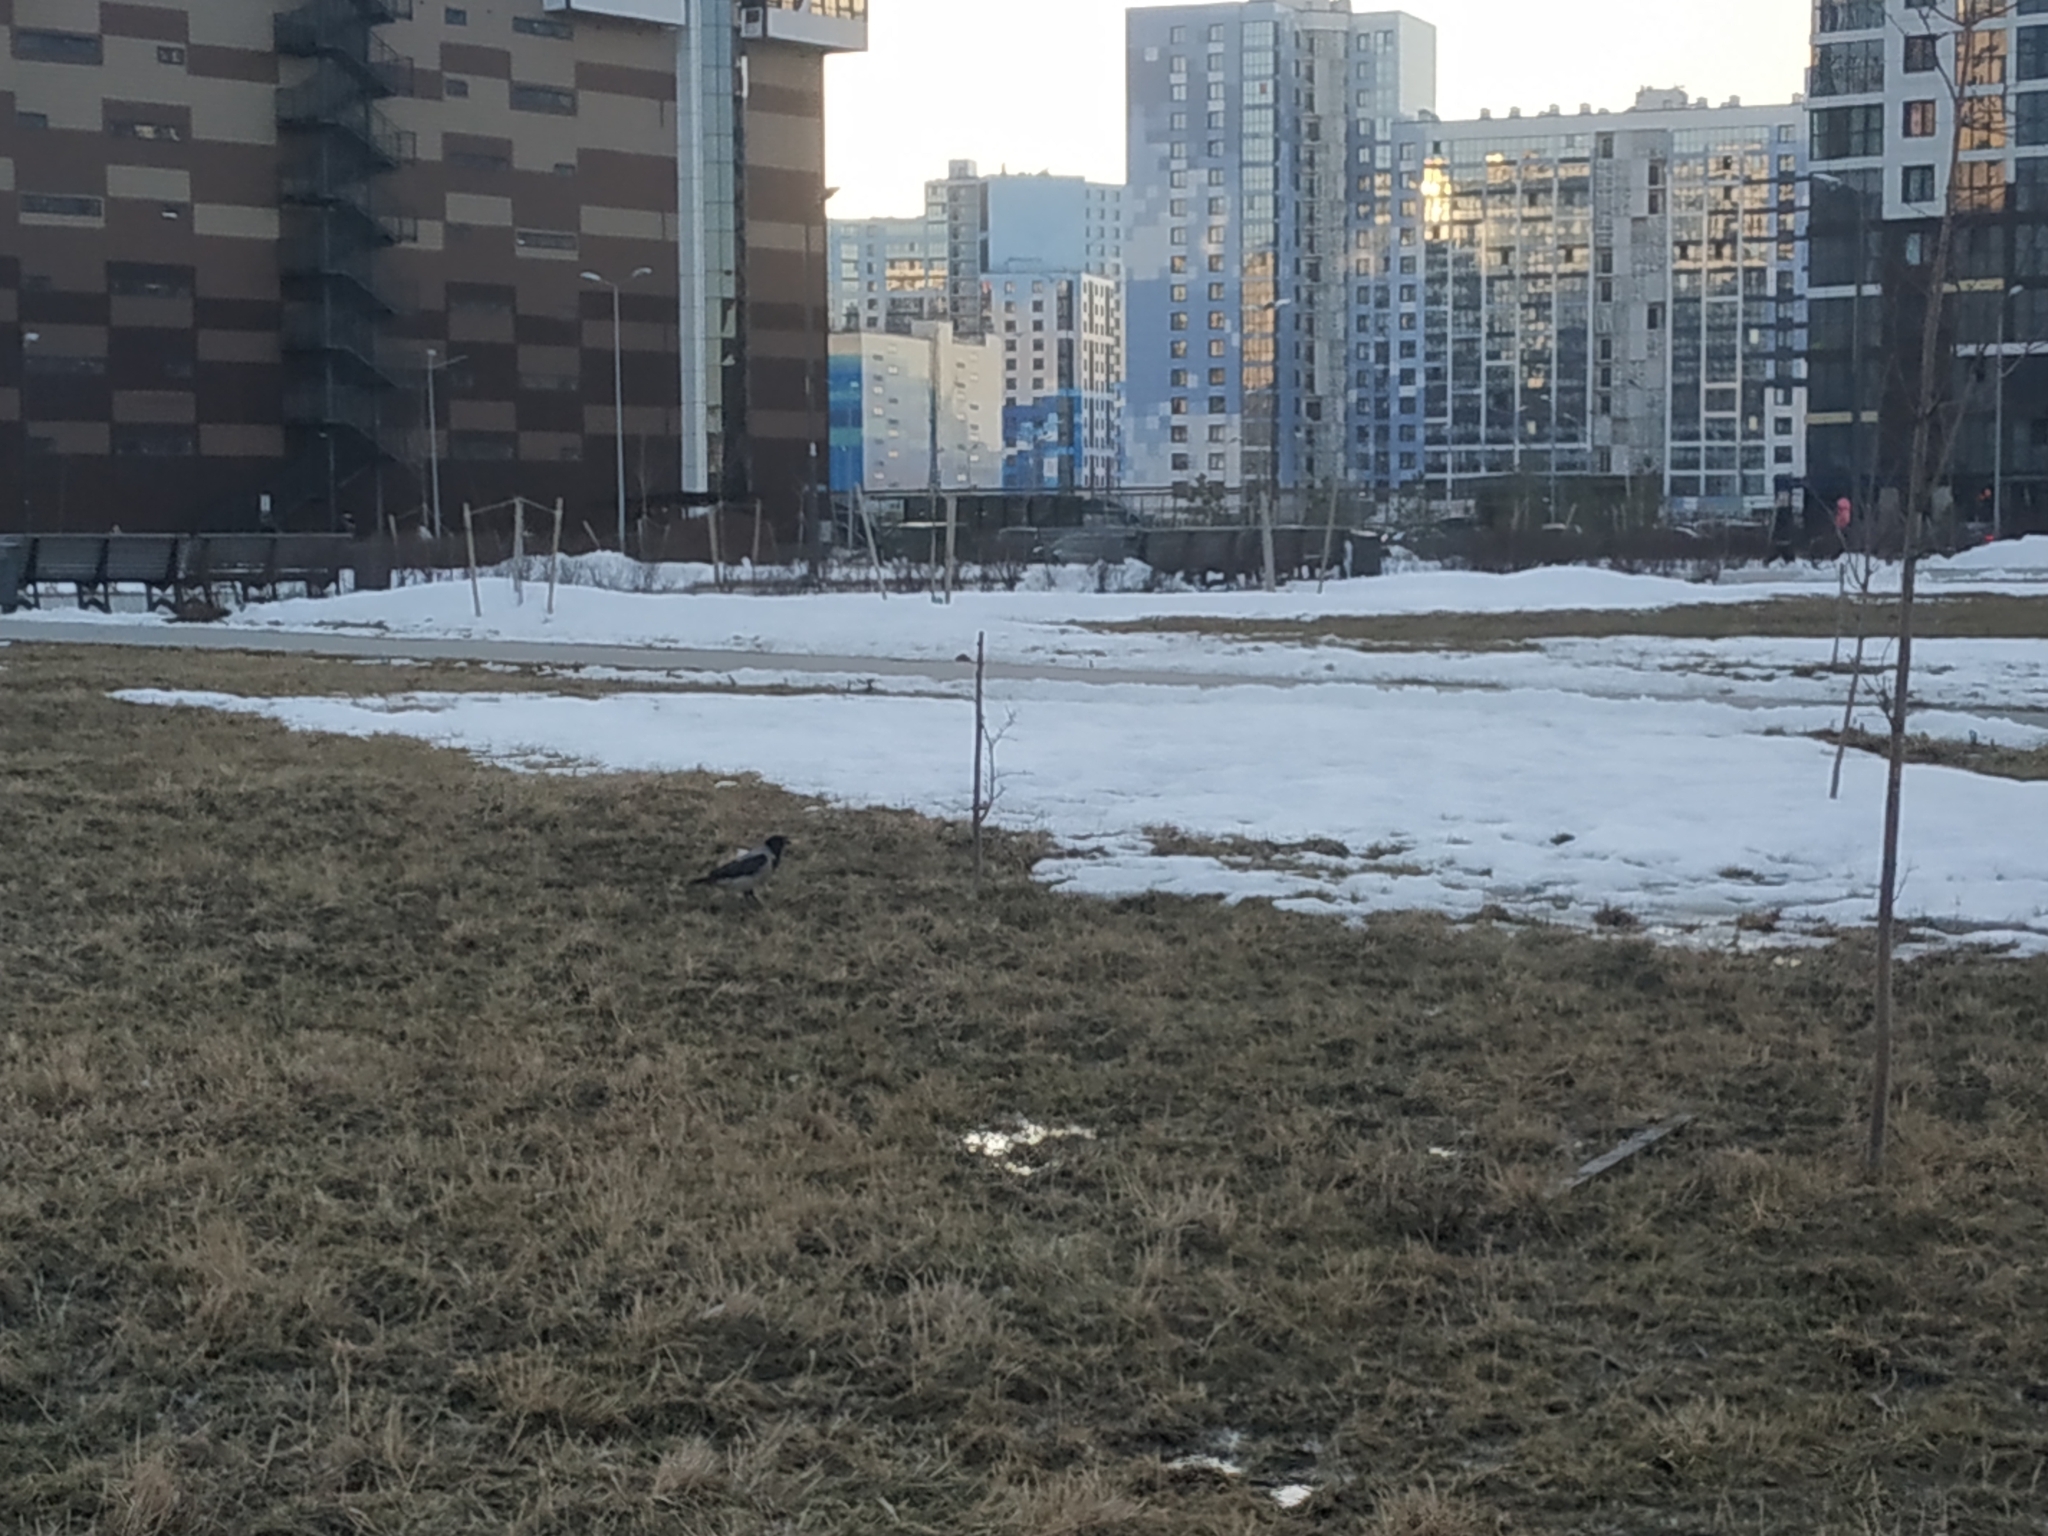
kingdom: Animalia
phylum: Chordata
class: Aves
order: Passeriformes
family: Corvidae
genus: Corvus
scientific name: Corvus cornix
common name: Hooded crow
